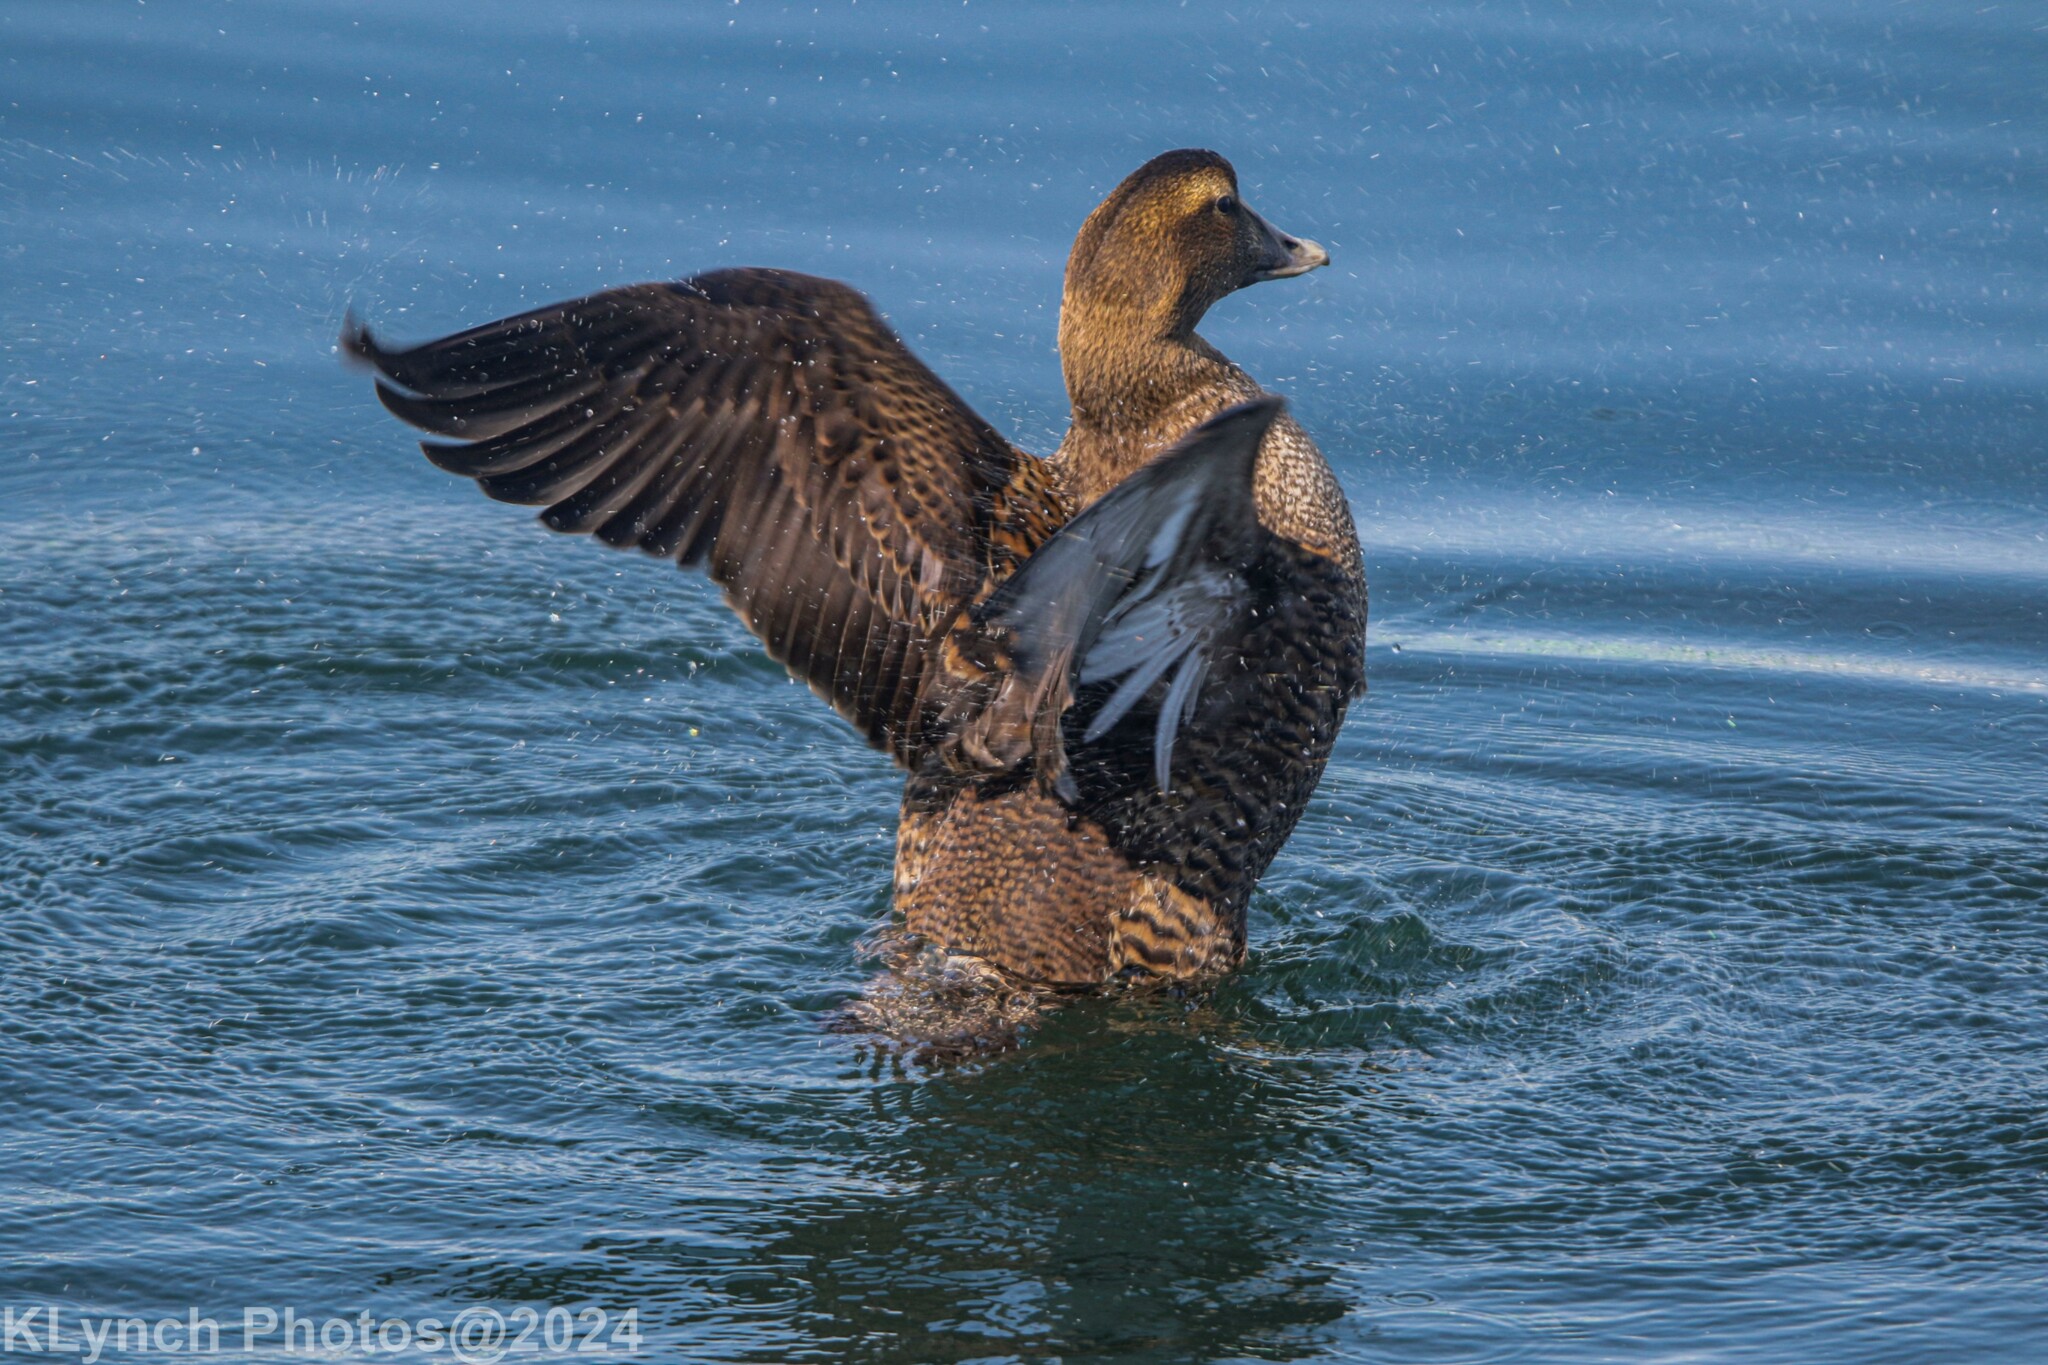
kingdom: Animalia
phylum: Chordata
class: Aves
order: Anseriformes
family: Anatidae
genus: Somateria
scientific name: Somateria mollissima
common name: Common eider
